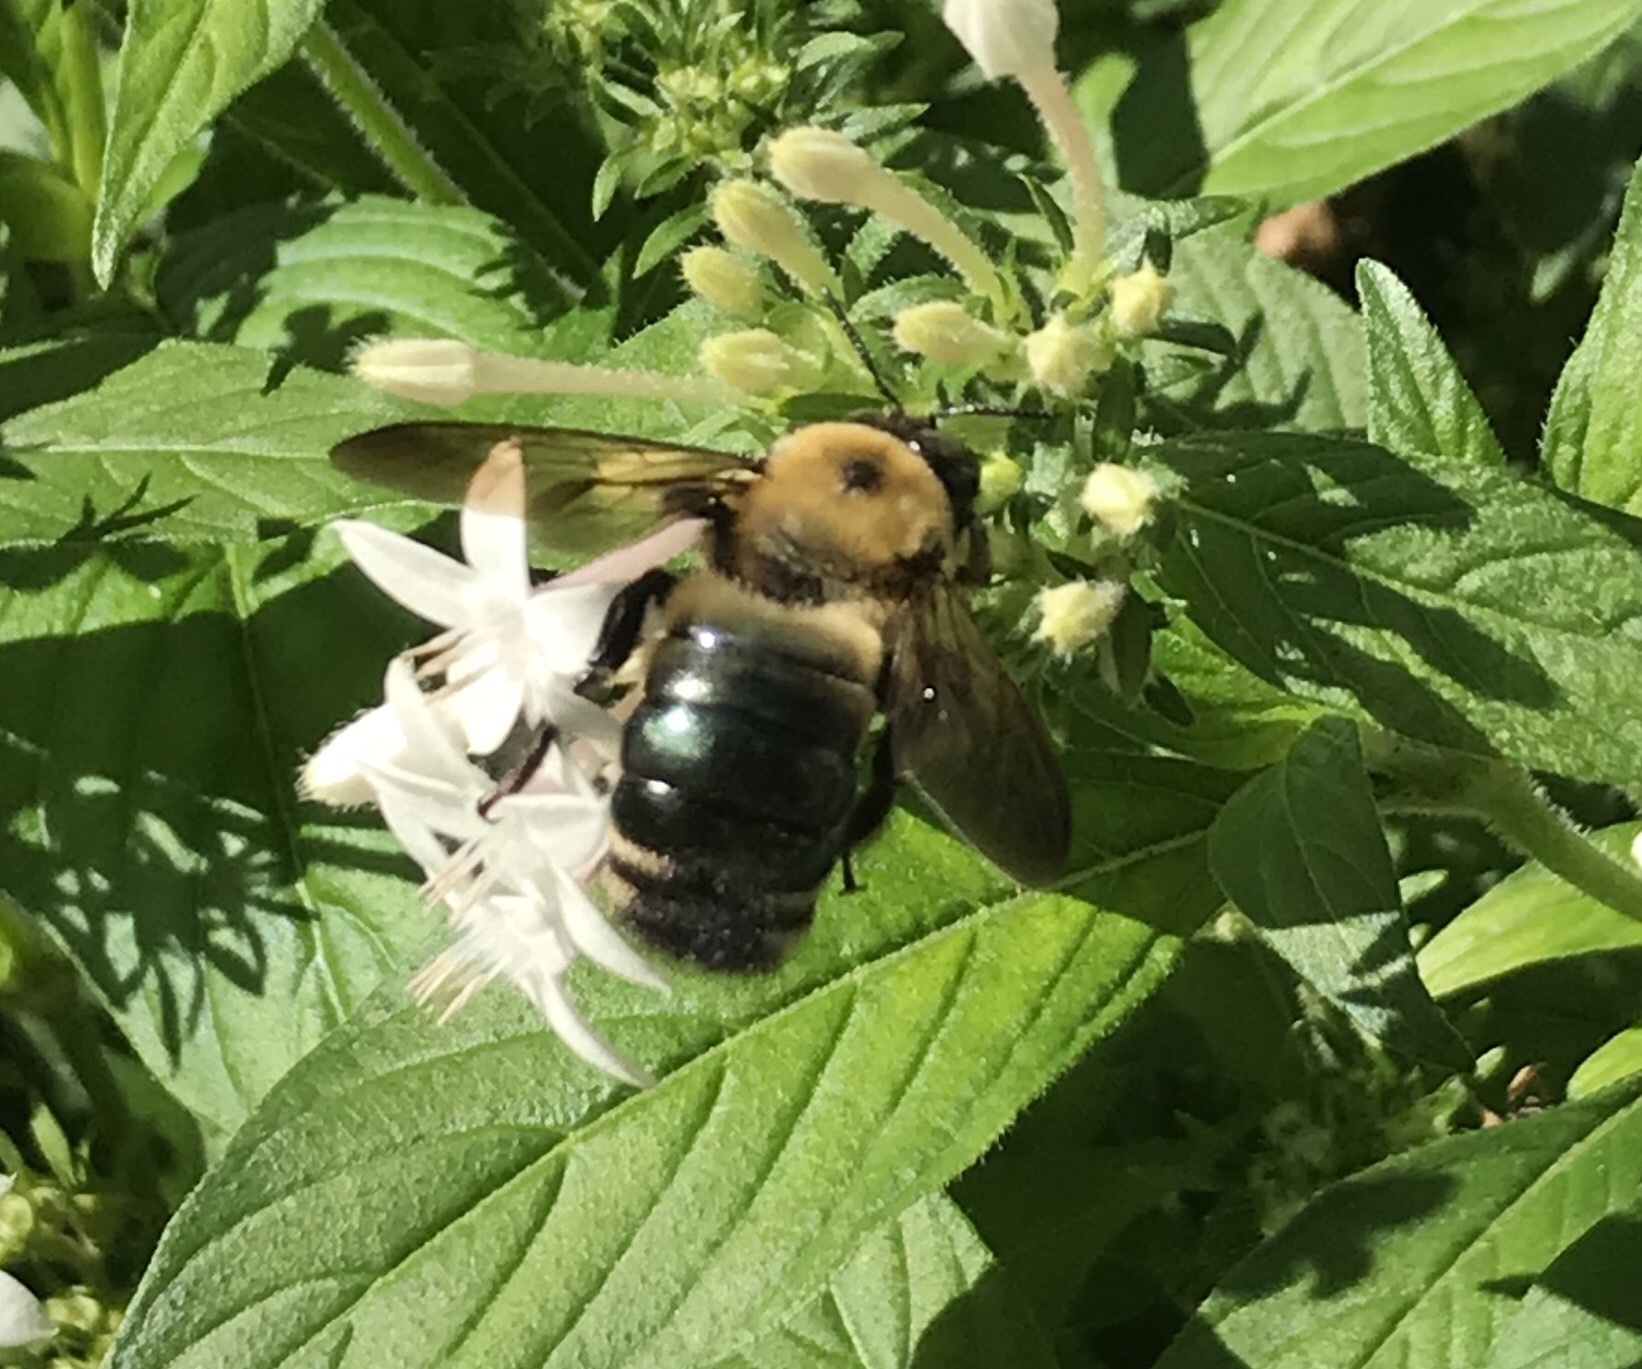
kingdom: Animalia
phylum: Arthropoda
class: Insecta
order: Hymenoptera
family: Apidae
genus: Xylocopa
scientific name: Xylocopa virginica
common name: Carpenter bee
